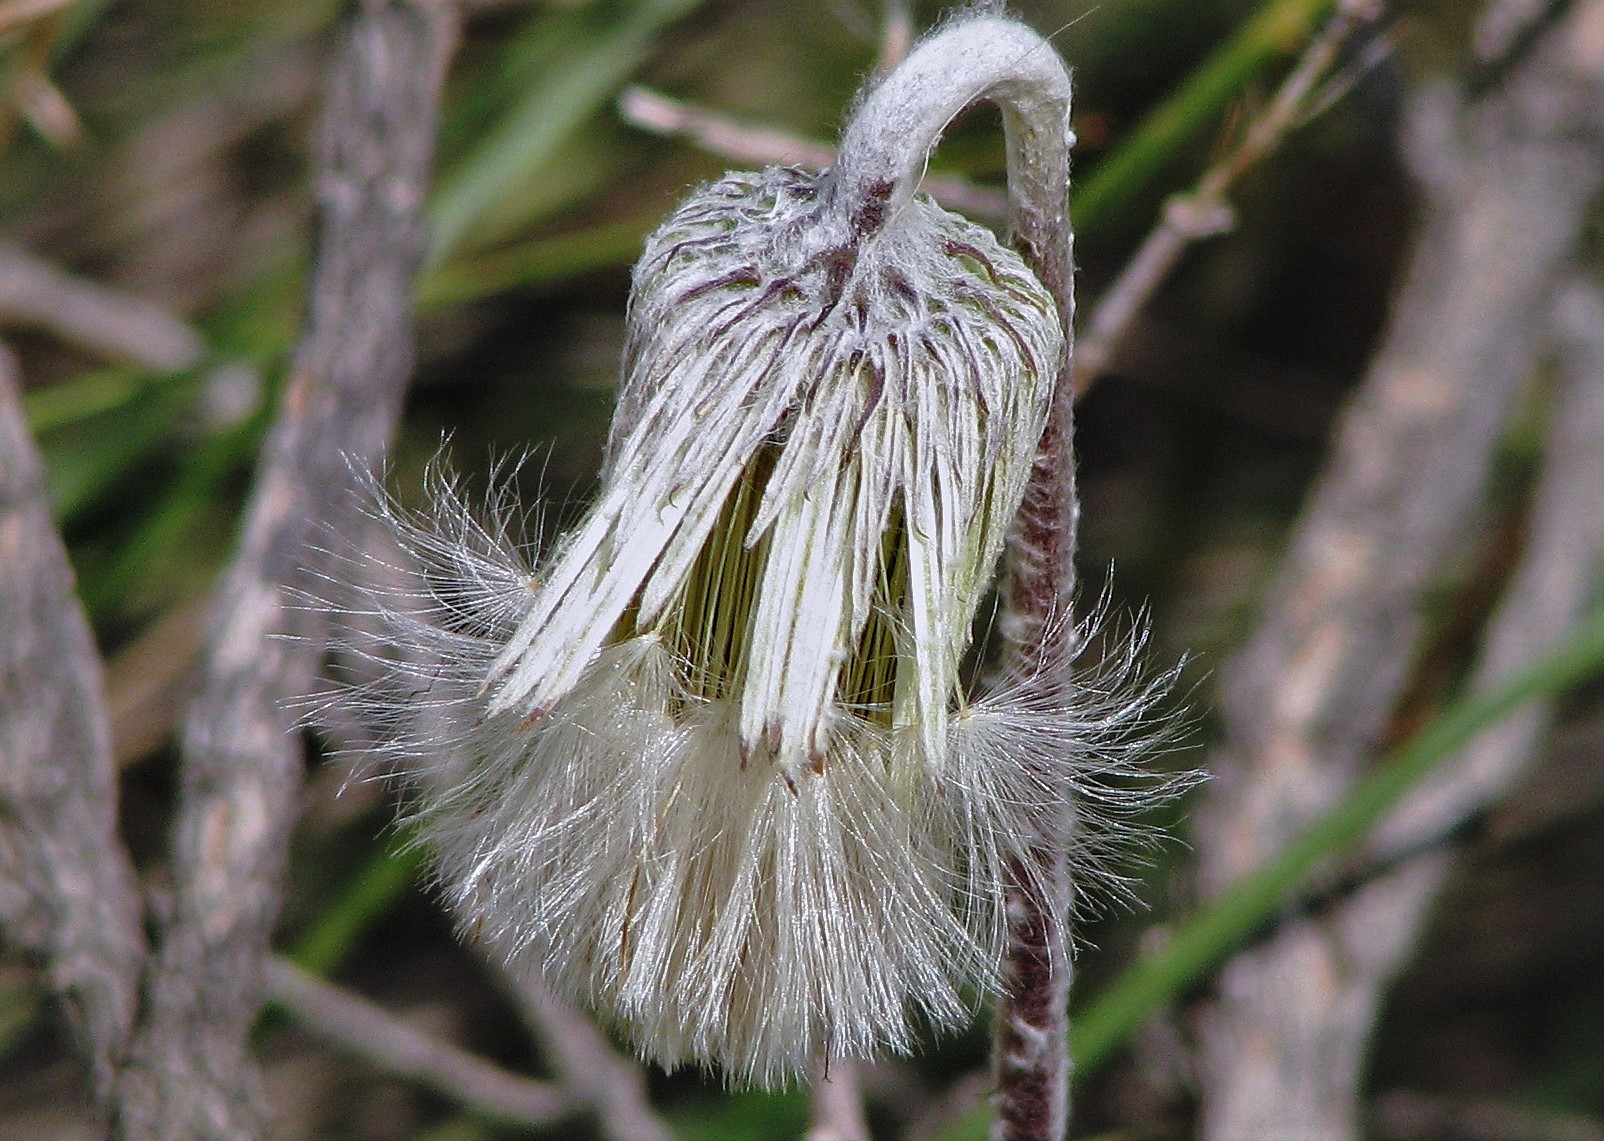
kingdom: Plantae
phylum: Tracheophyta
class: Magnoliopsida
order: Asterales
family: Asteraceae
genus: Chaptalia
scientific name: Chaptalia nutans
